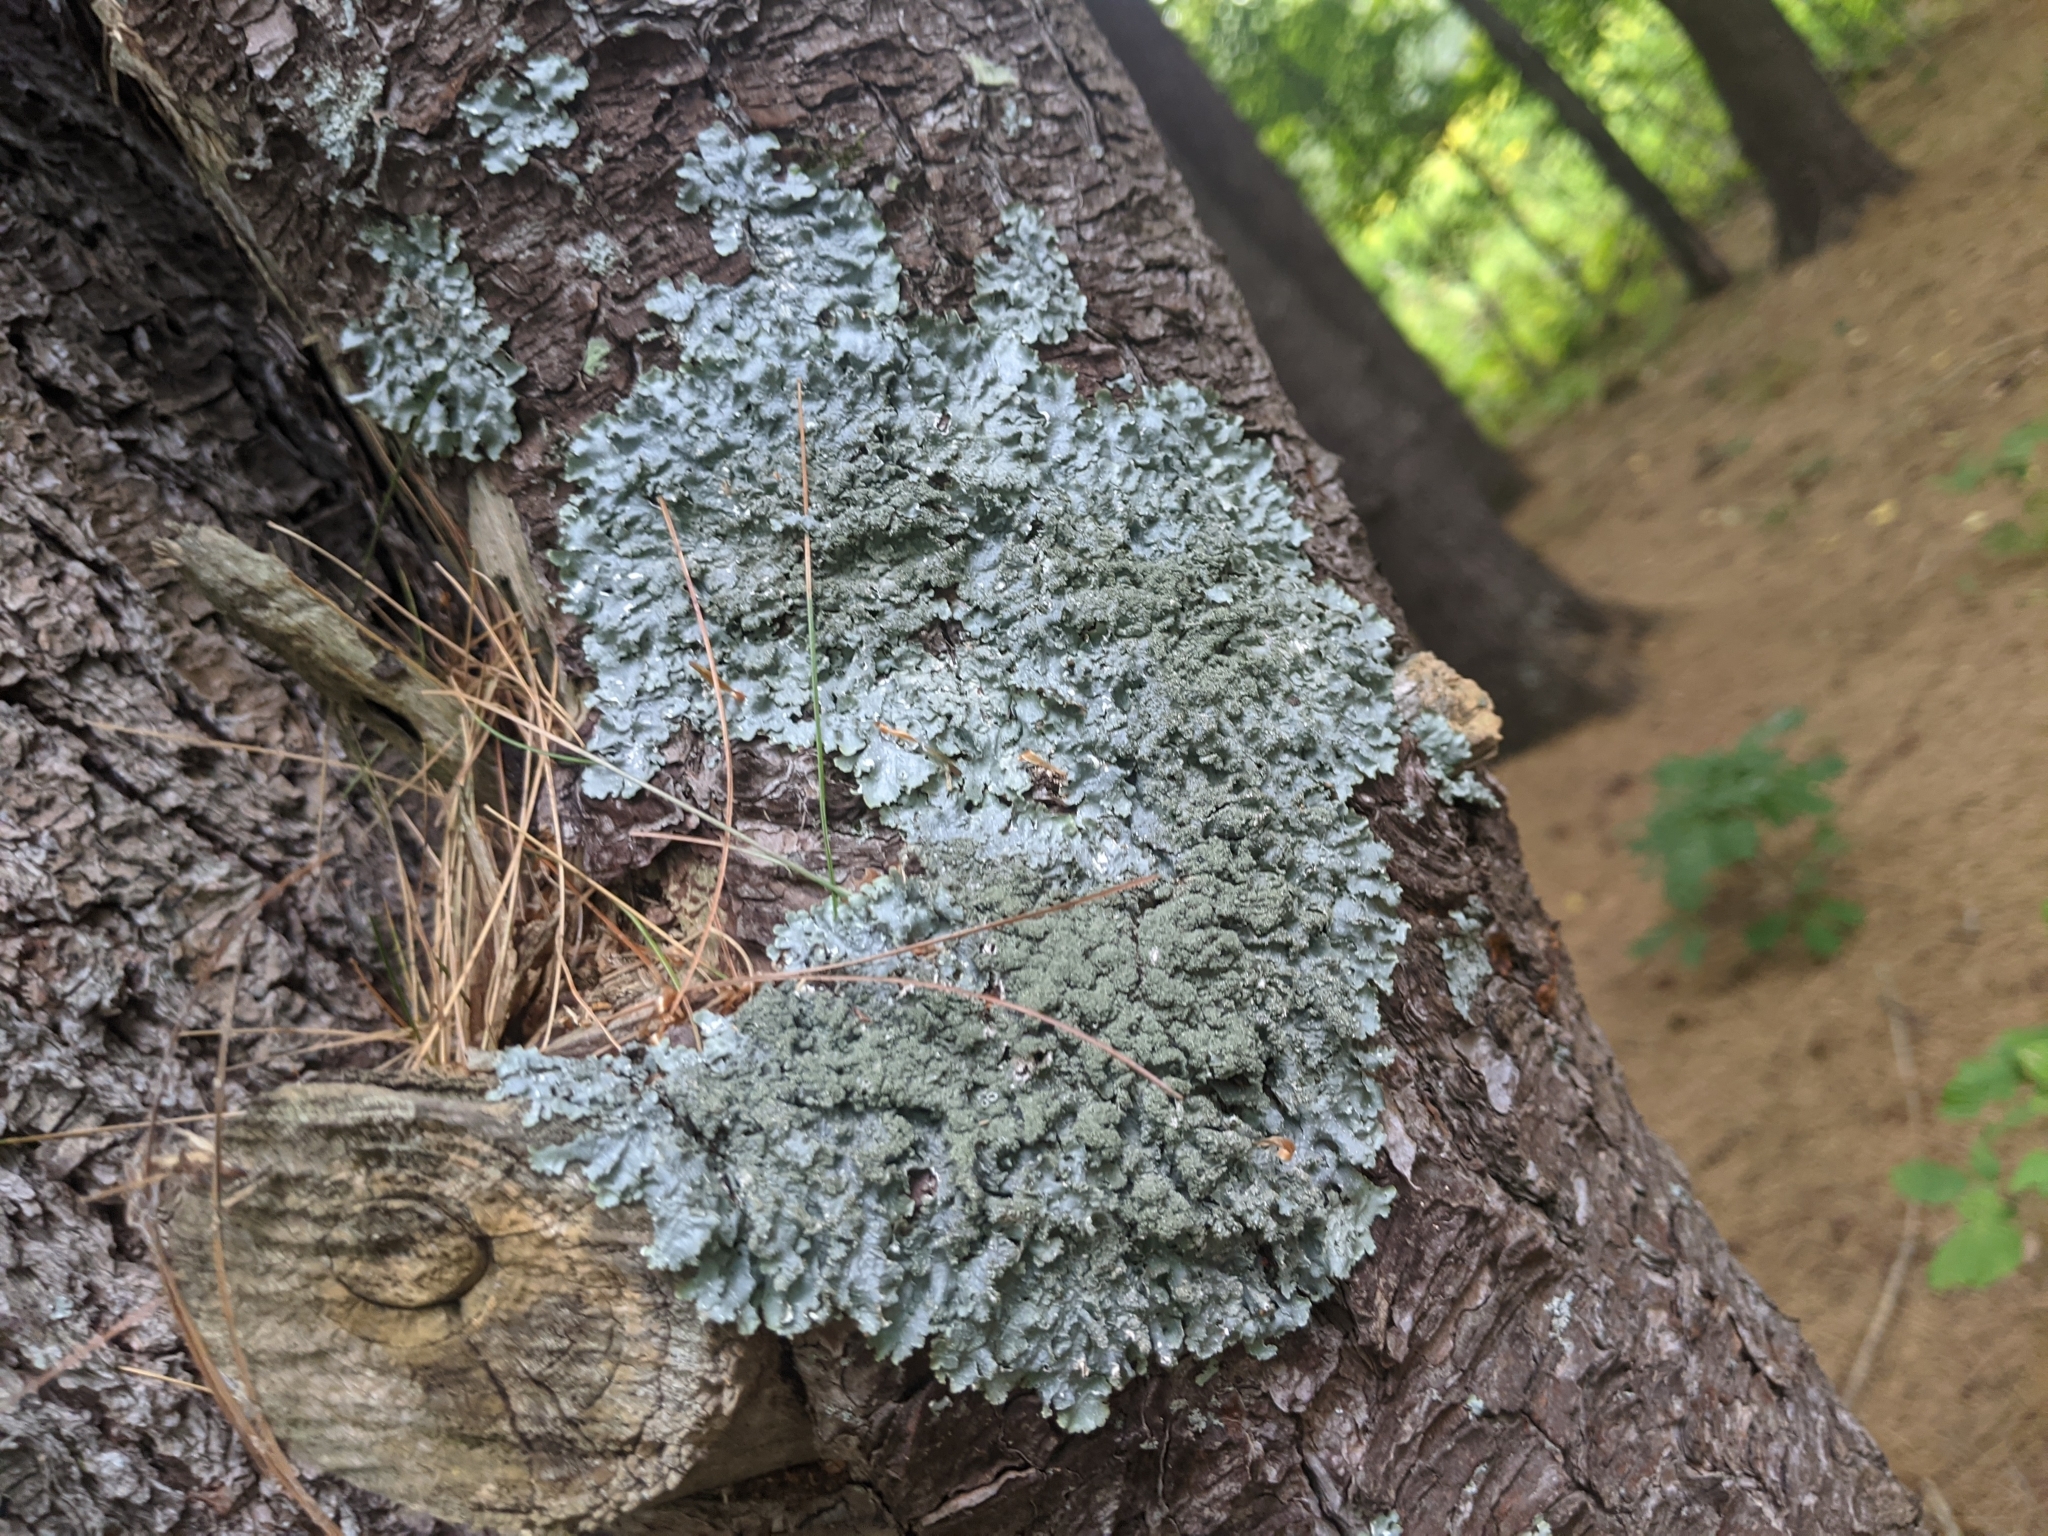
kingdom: Fungi
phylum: Ascomycota
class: Lecanoromycetes
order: Lecanorales
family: Parmeliaceae
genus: Punctelia
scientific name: Punctelia rudecta
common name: Rough speckled shield lichen
